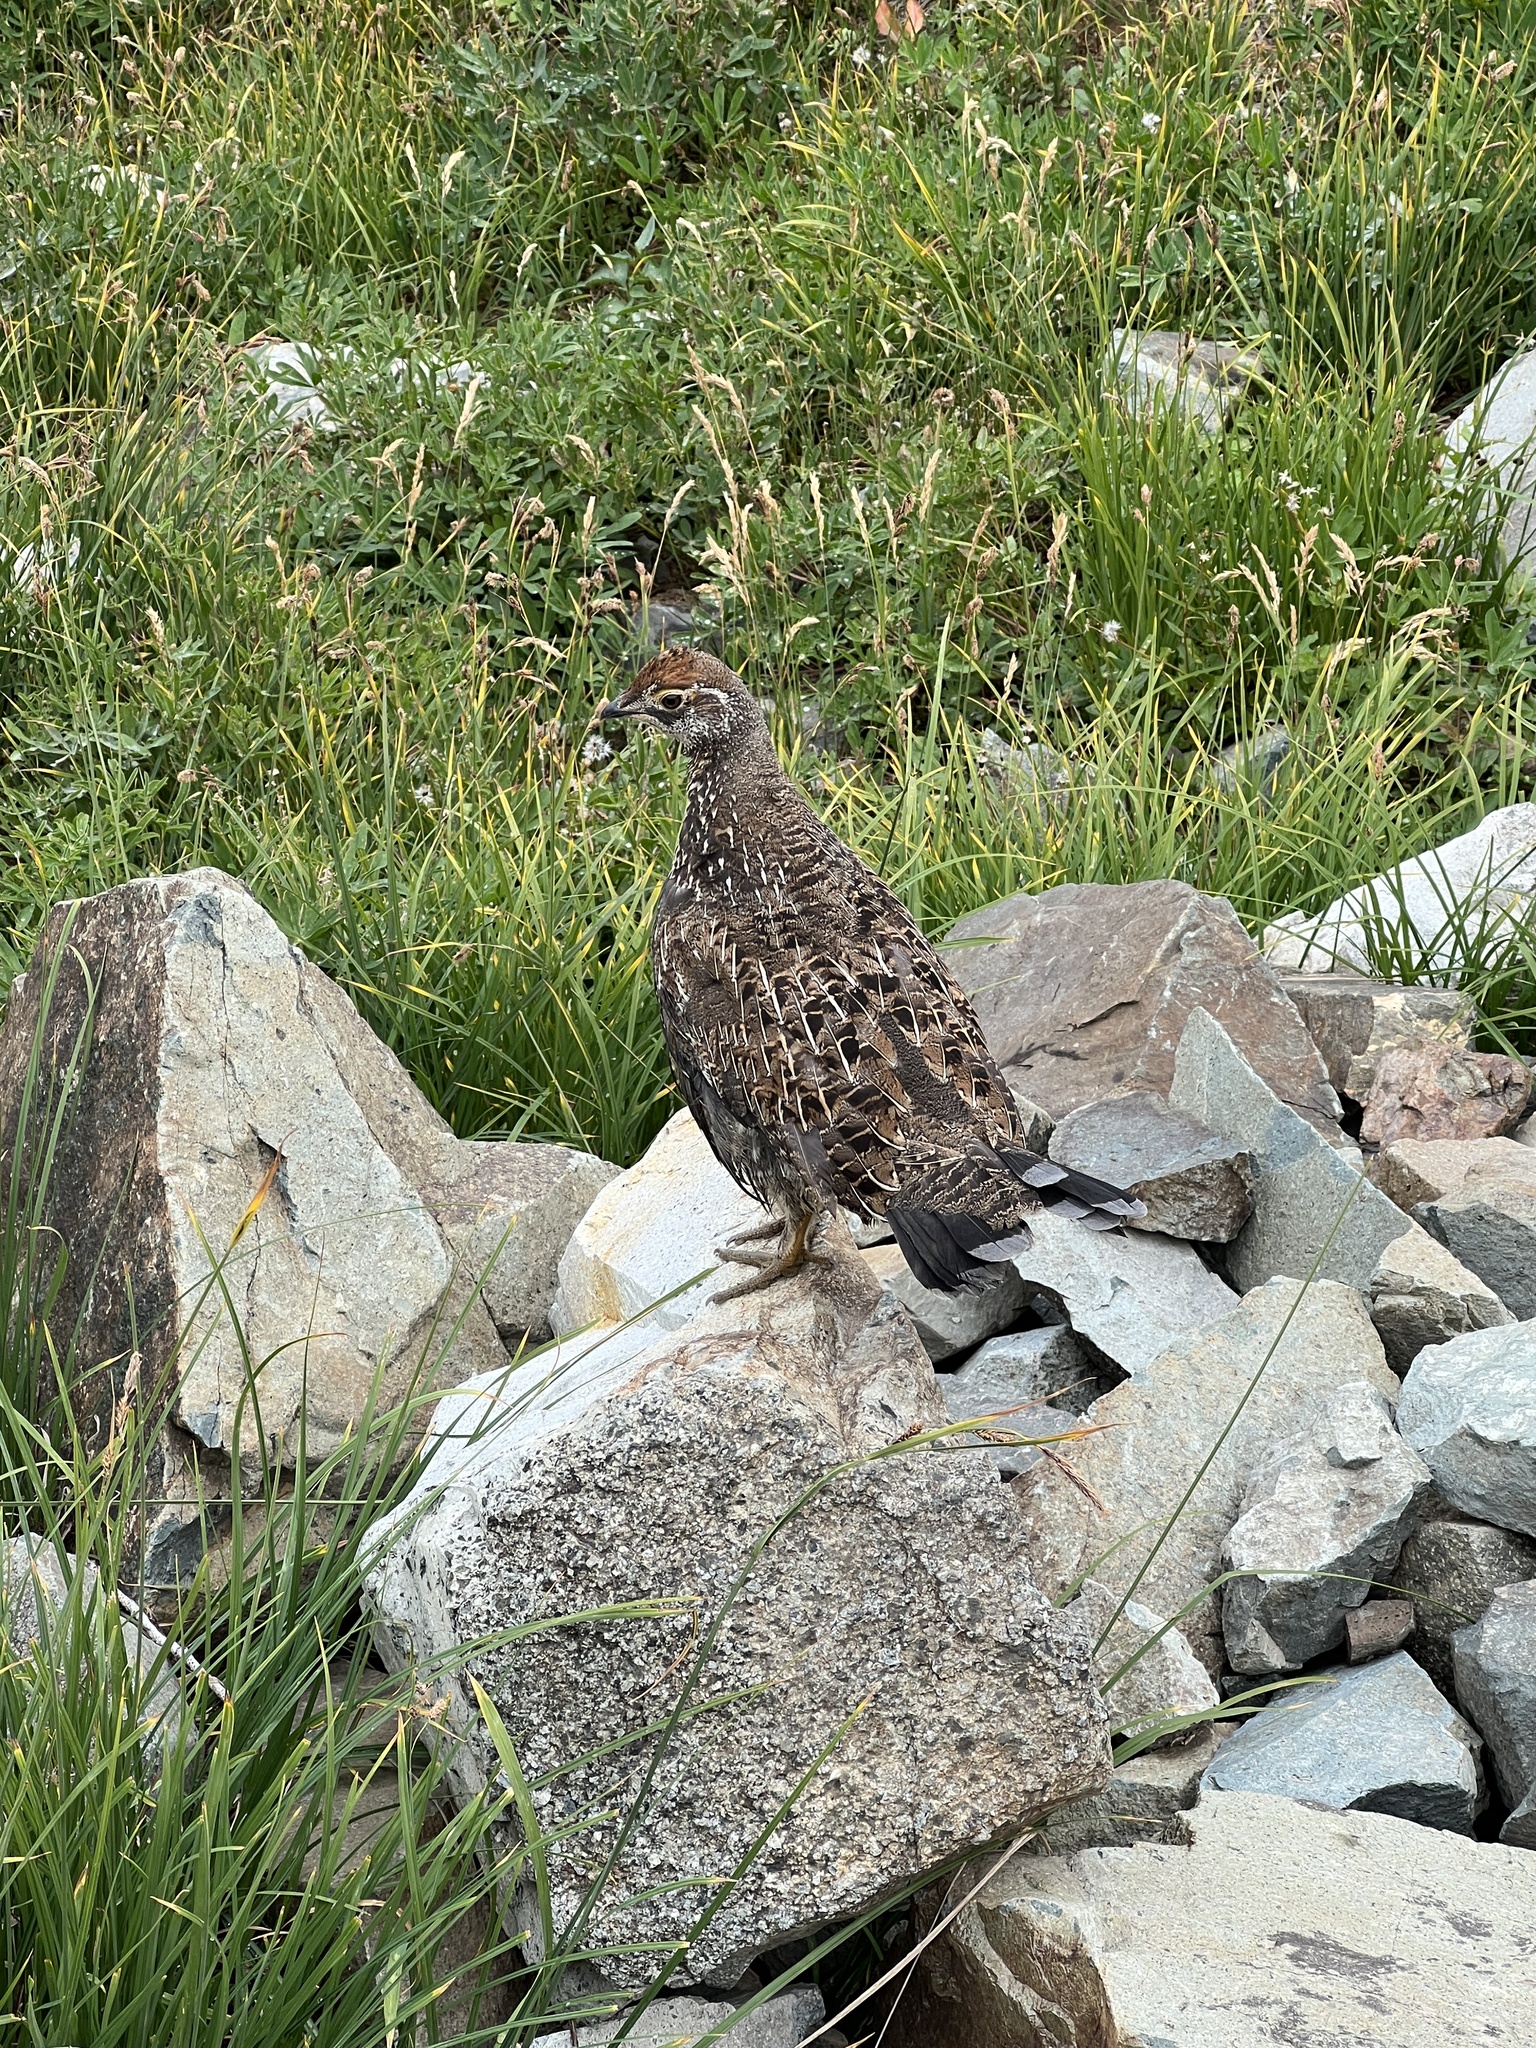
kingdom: Animalia
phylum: Chordata
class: Aves
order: Galliformes
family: Phasianidae
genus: Dendragapus
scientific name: Dendragapus fuliginosus
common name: Sooty grouse
